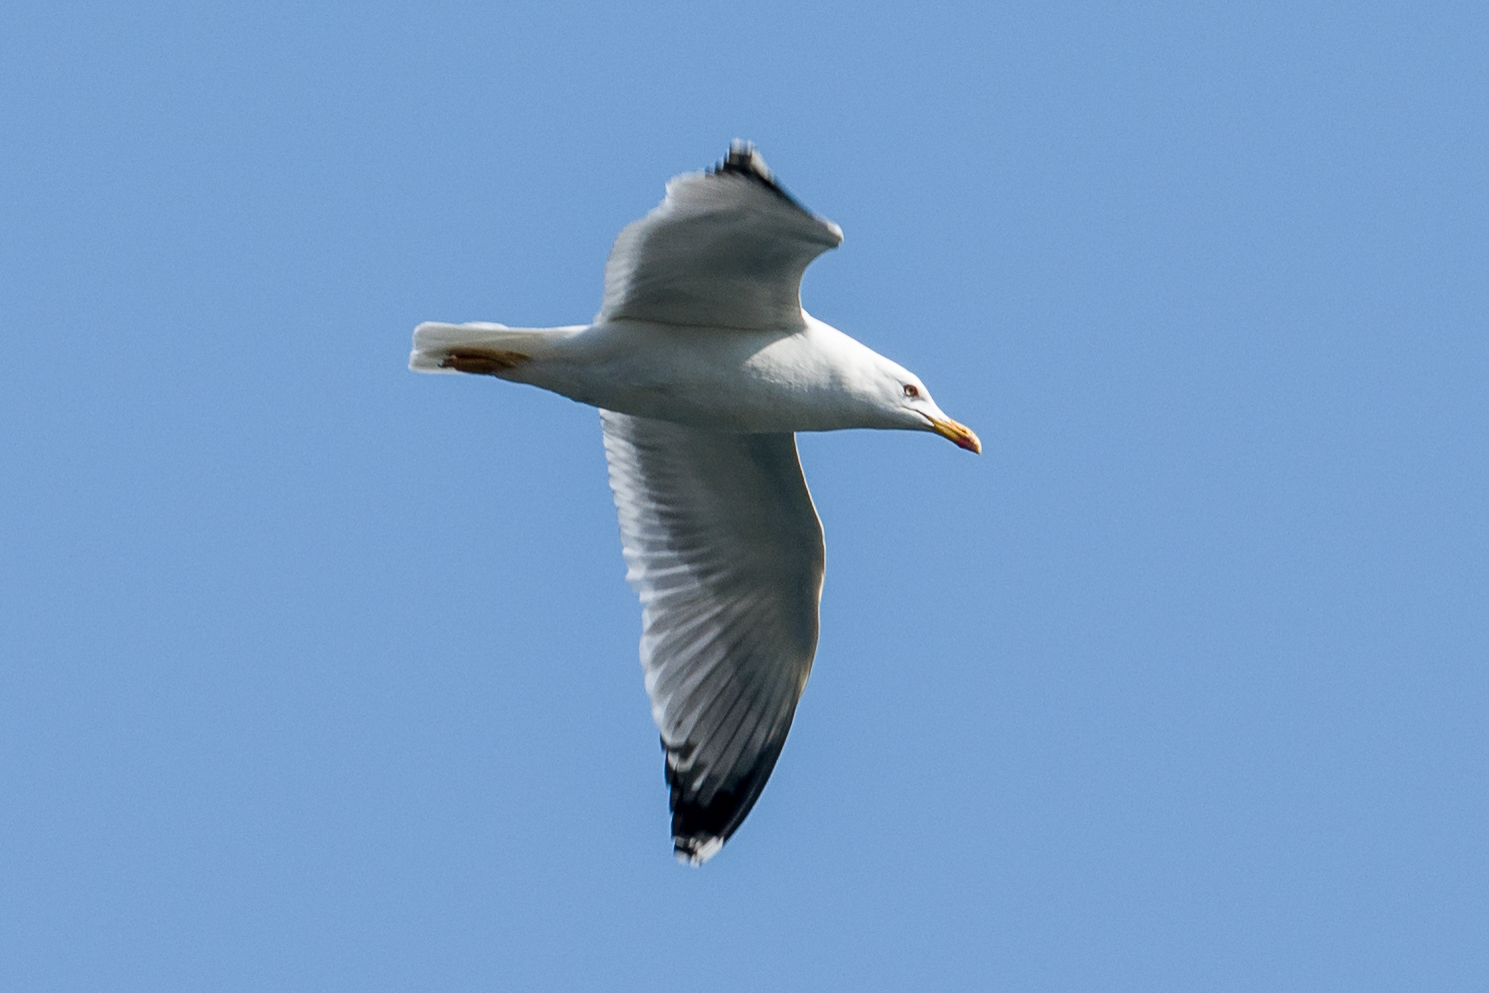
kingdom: Animalia
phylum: Chordata
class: Aves
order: Charadriiformes
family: Laridae
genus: Larus
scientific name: Larus michahellis
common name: Yellow-legged gull
